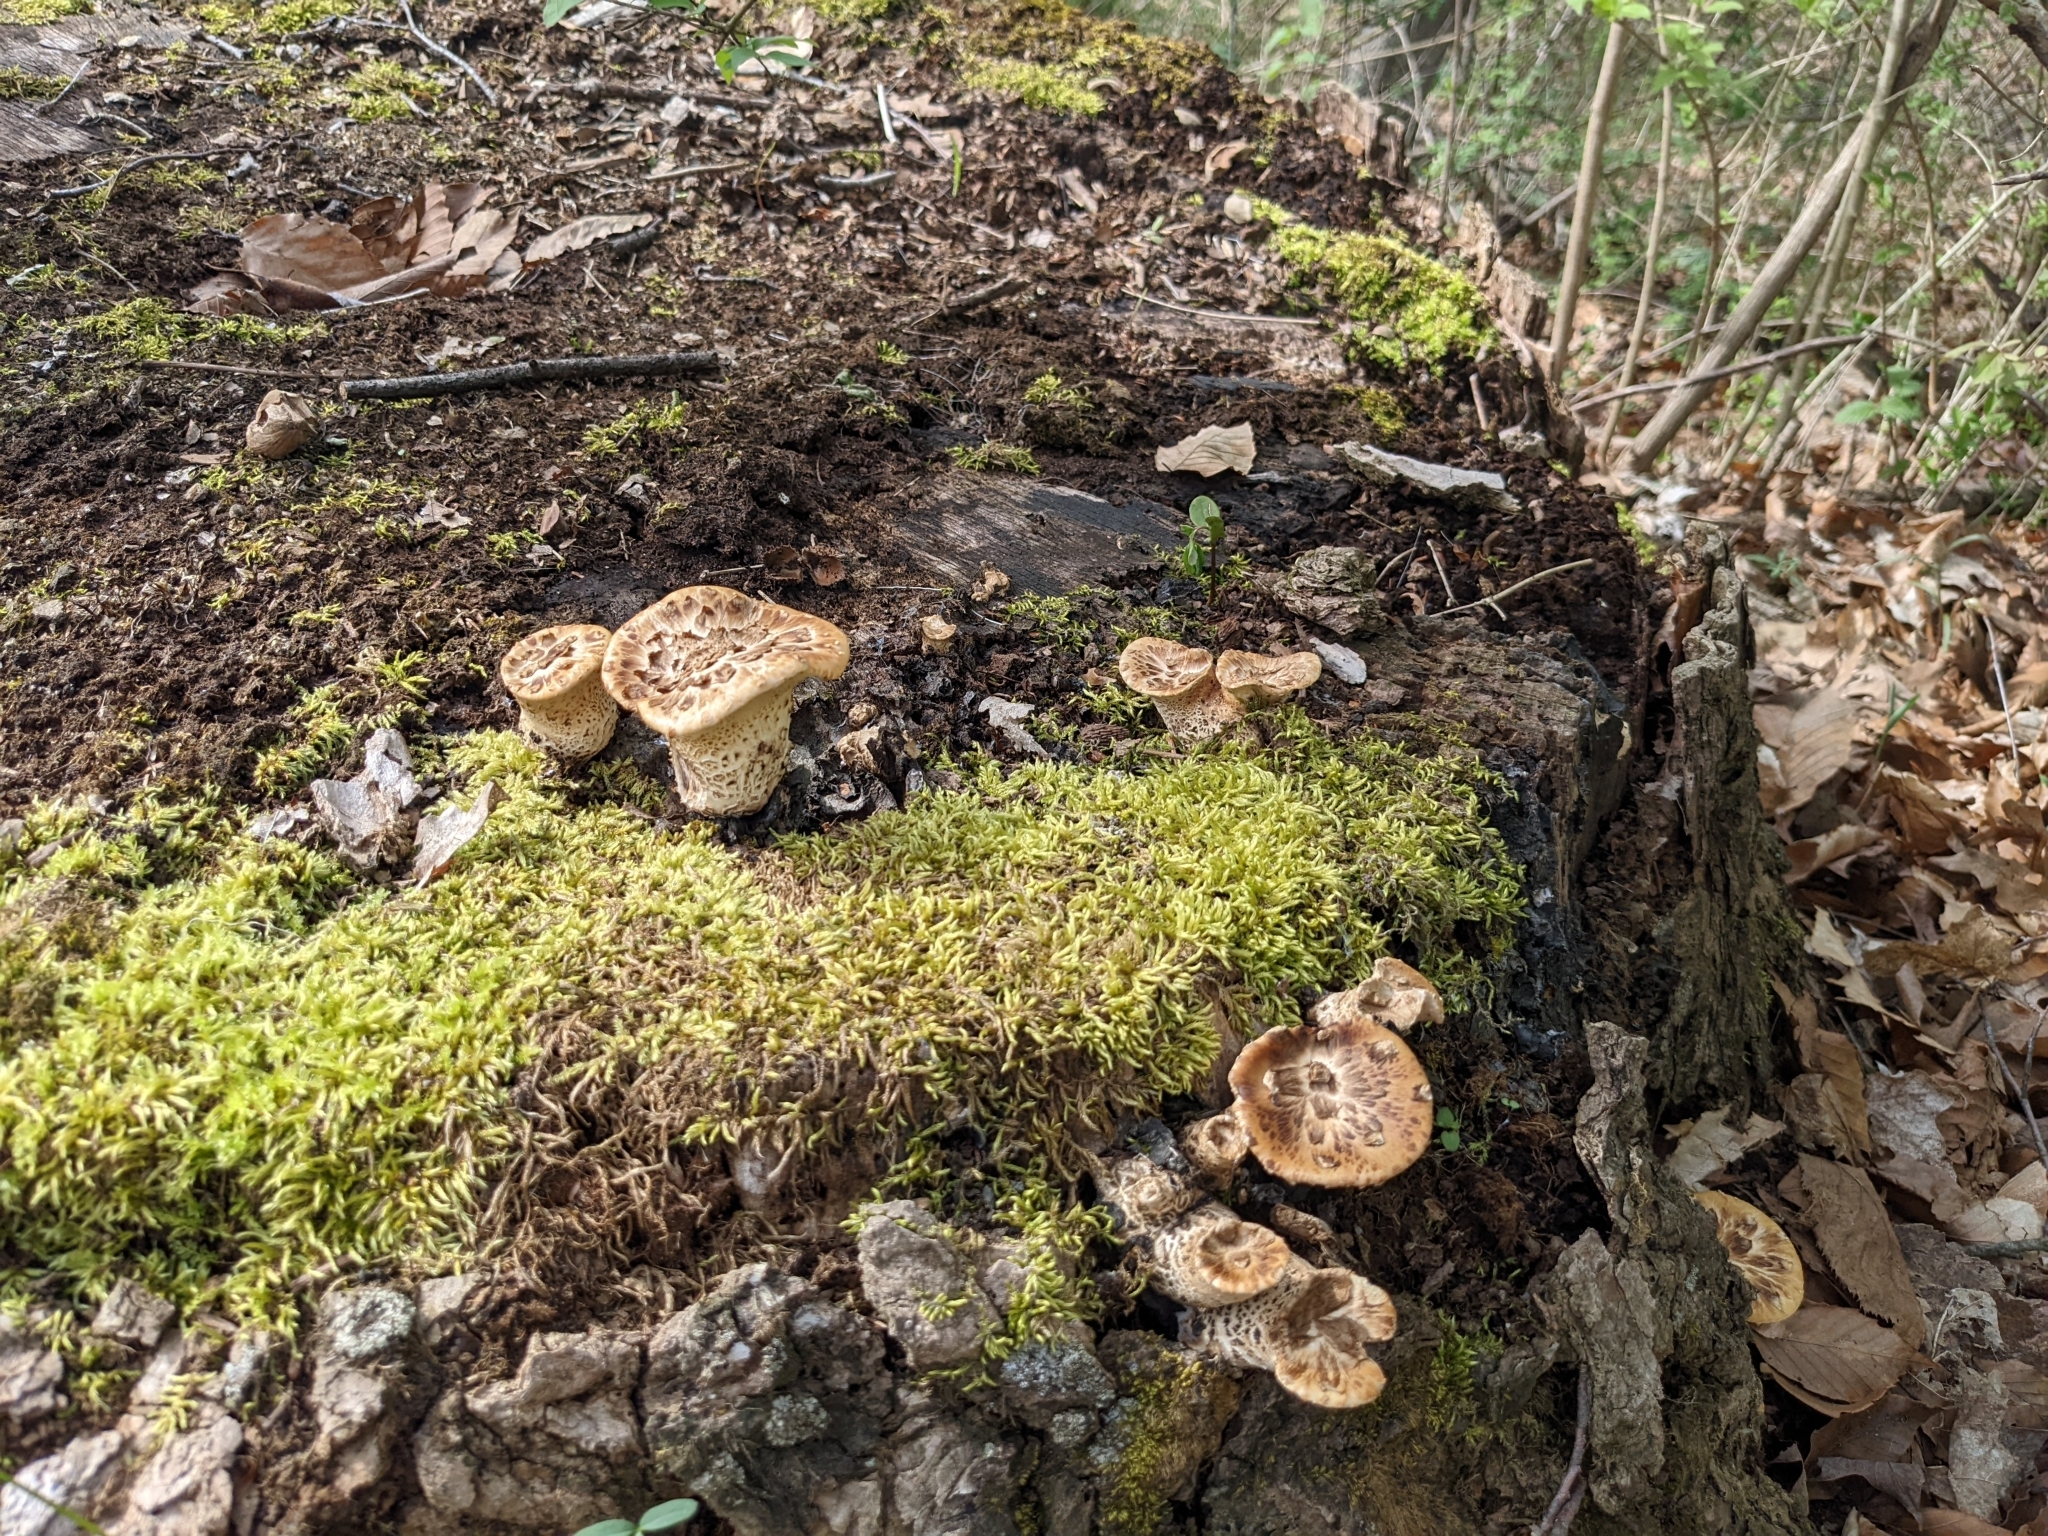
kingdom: Fungi
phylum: Basidiomycota
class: Agaricomycetes
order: Polyporales
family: Polyporaceae
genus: Cerioporus
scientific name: Cerioporus squamosus
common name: Dryad's saddle
